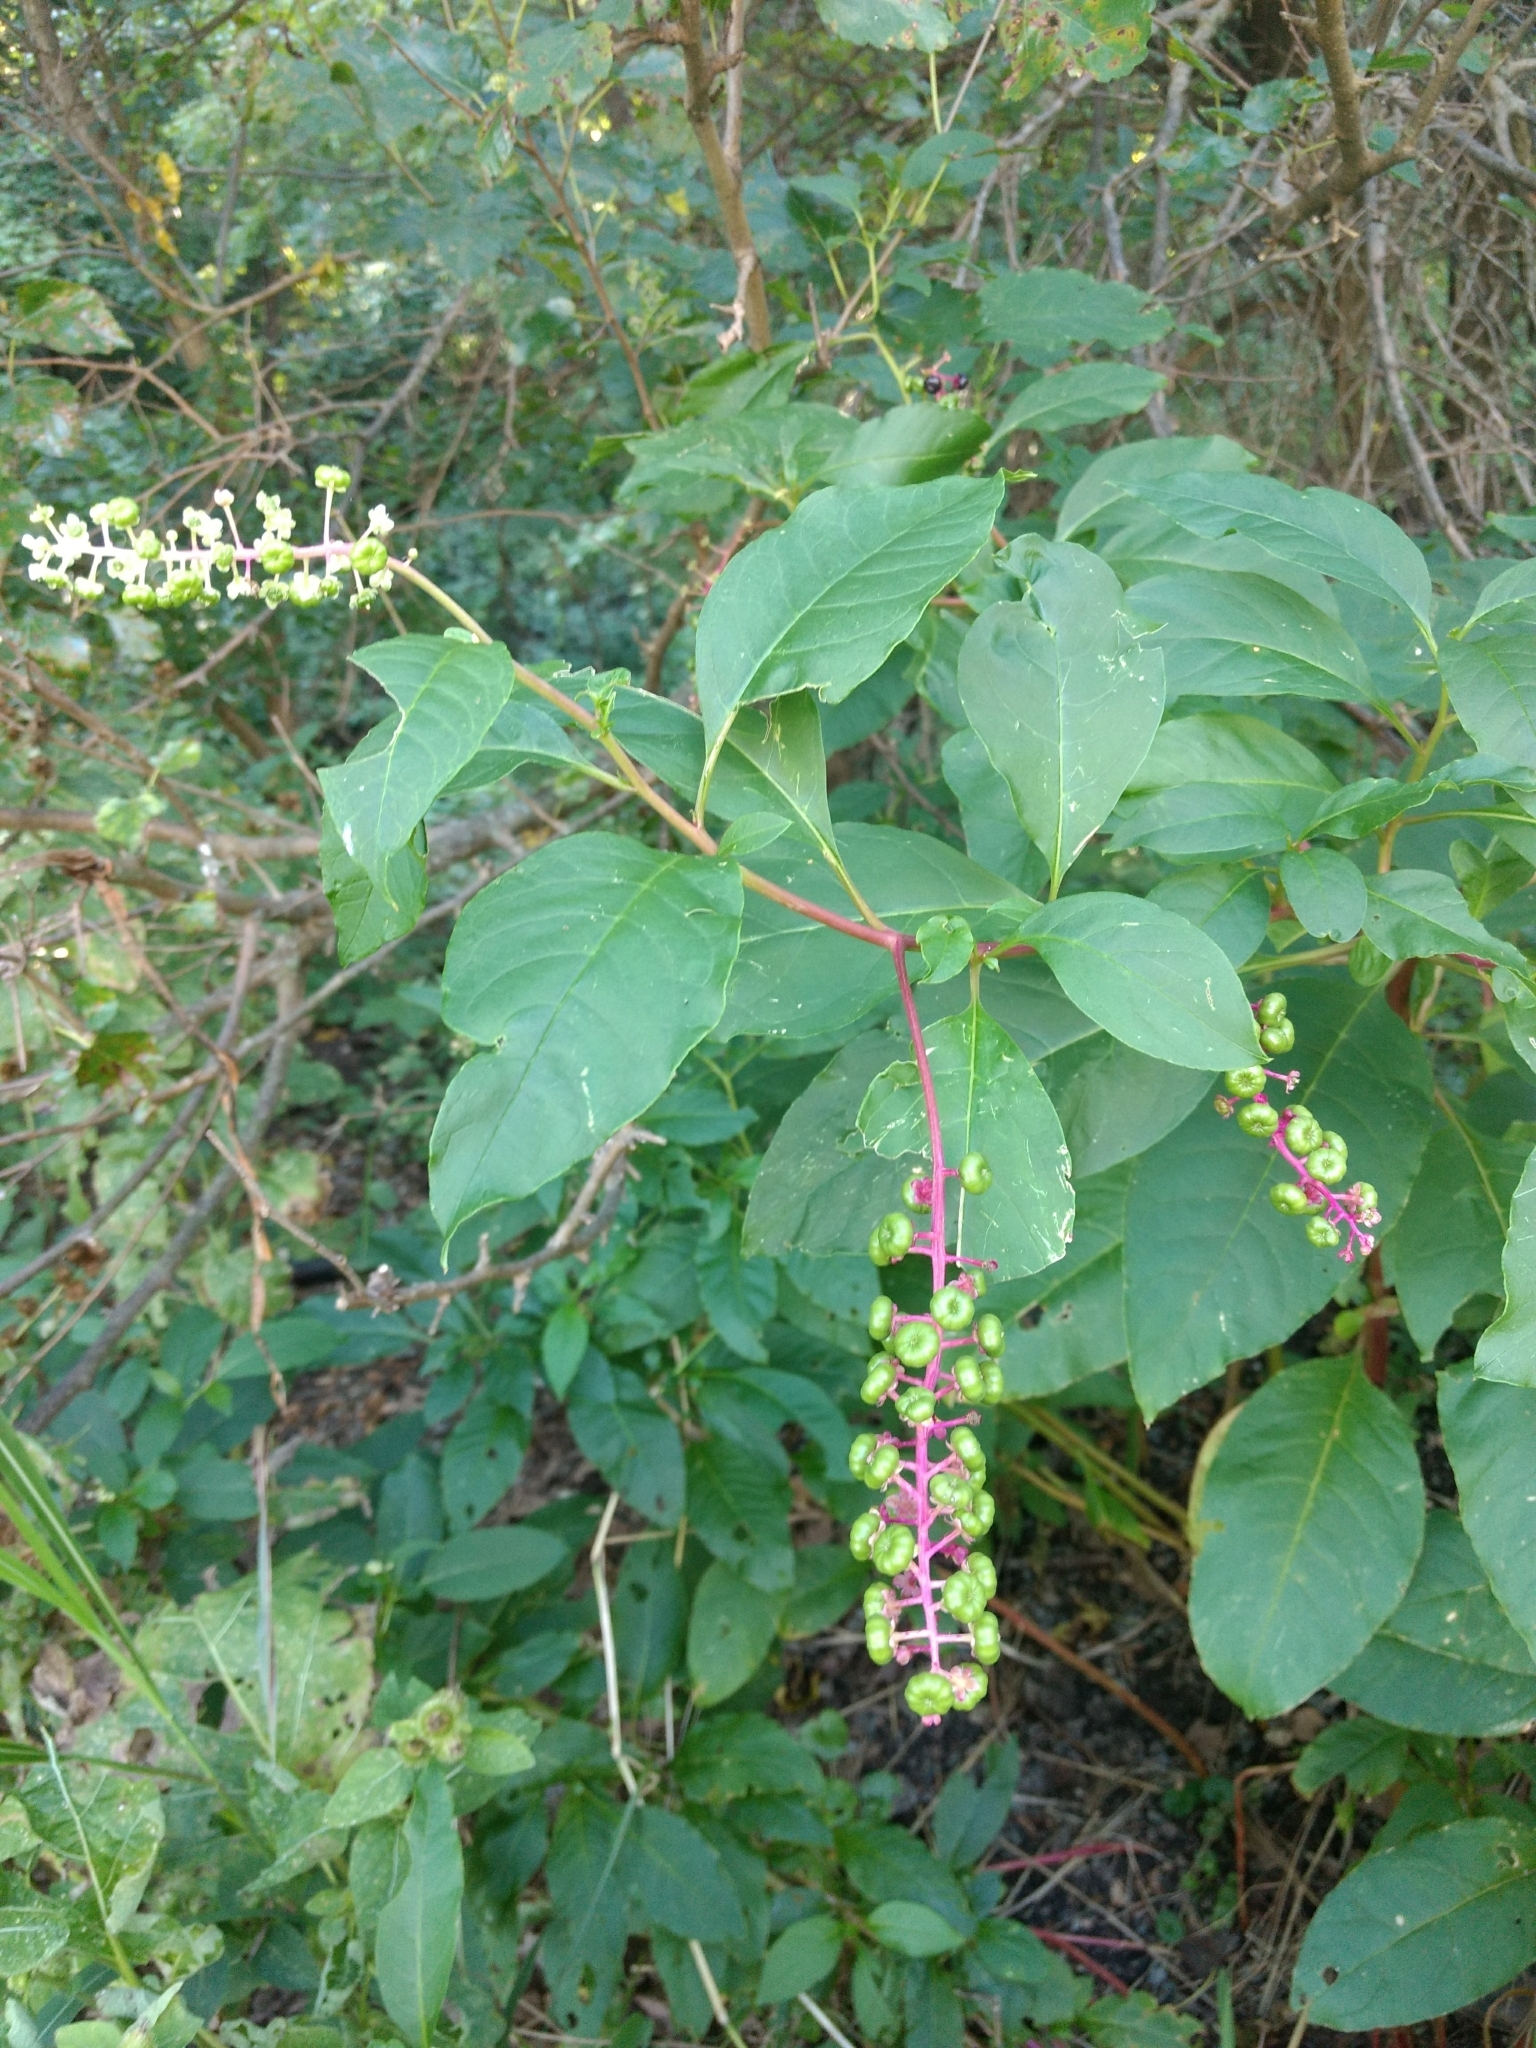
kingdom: Plantae
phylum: Tracheophyta
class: Magnoliopsida
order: Caryophyllales
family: Phytolaccaceae
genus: Phytolacca
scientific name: Phytolacca americana
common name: American pokeweed
